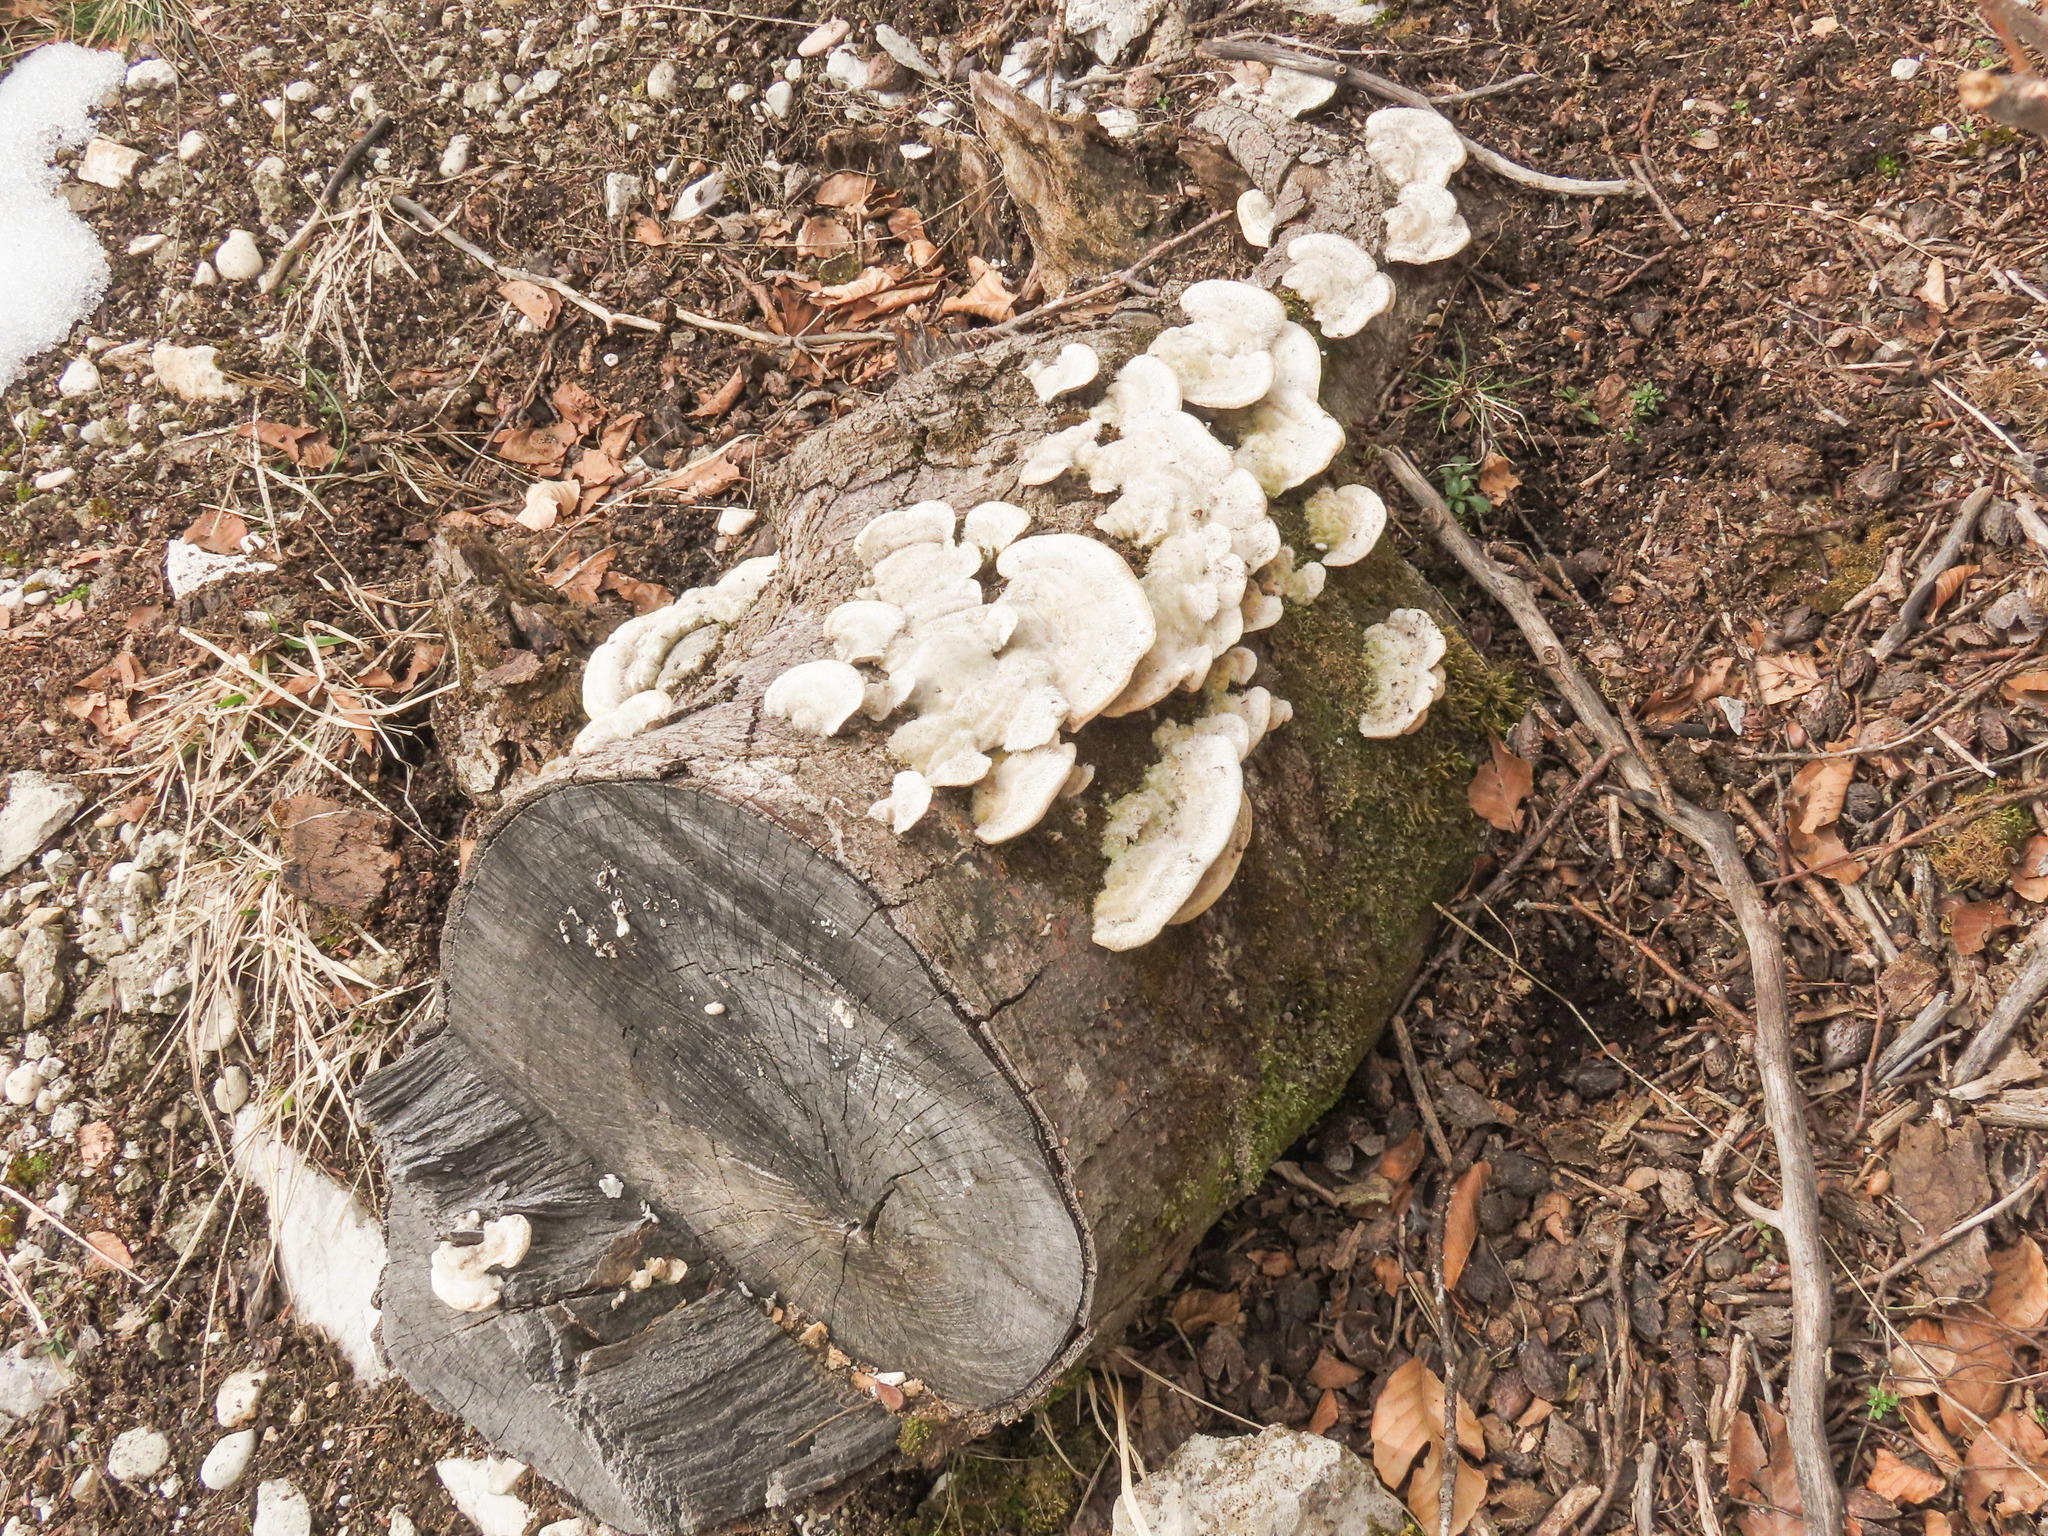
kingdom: Fungi
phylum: Basidiomycota
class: Agaricomycetes
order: Polyporales
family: Polyporaceae
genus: Trametes
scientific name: Trametes hirsuta
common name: Hairy bracket
